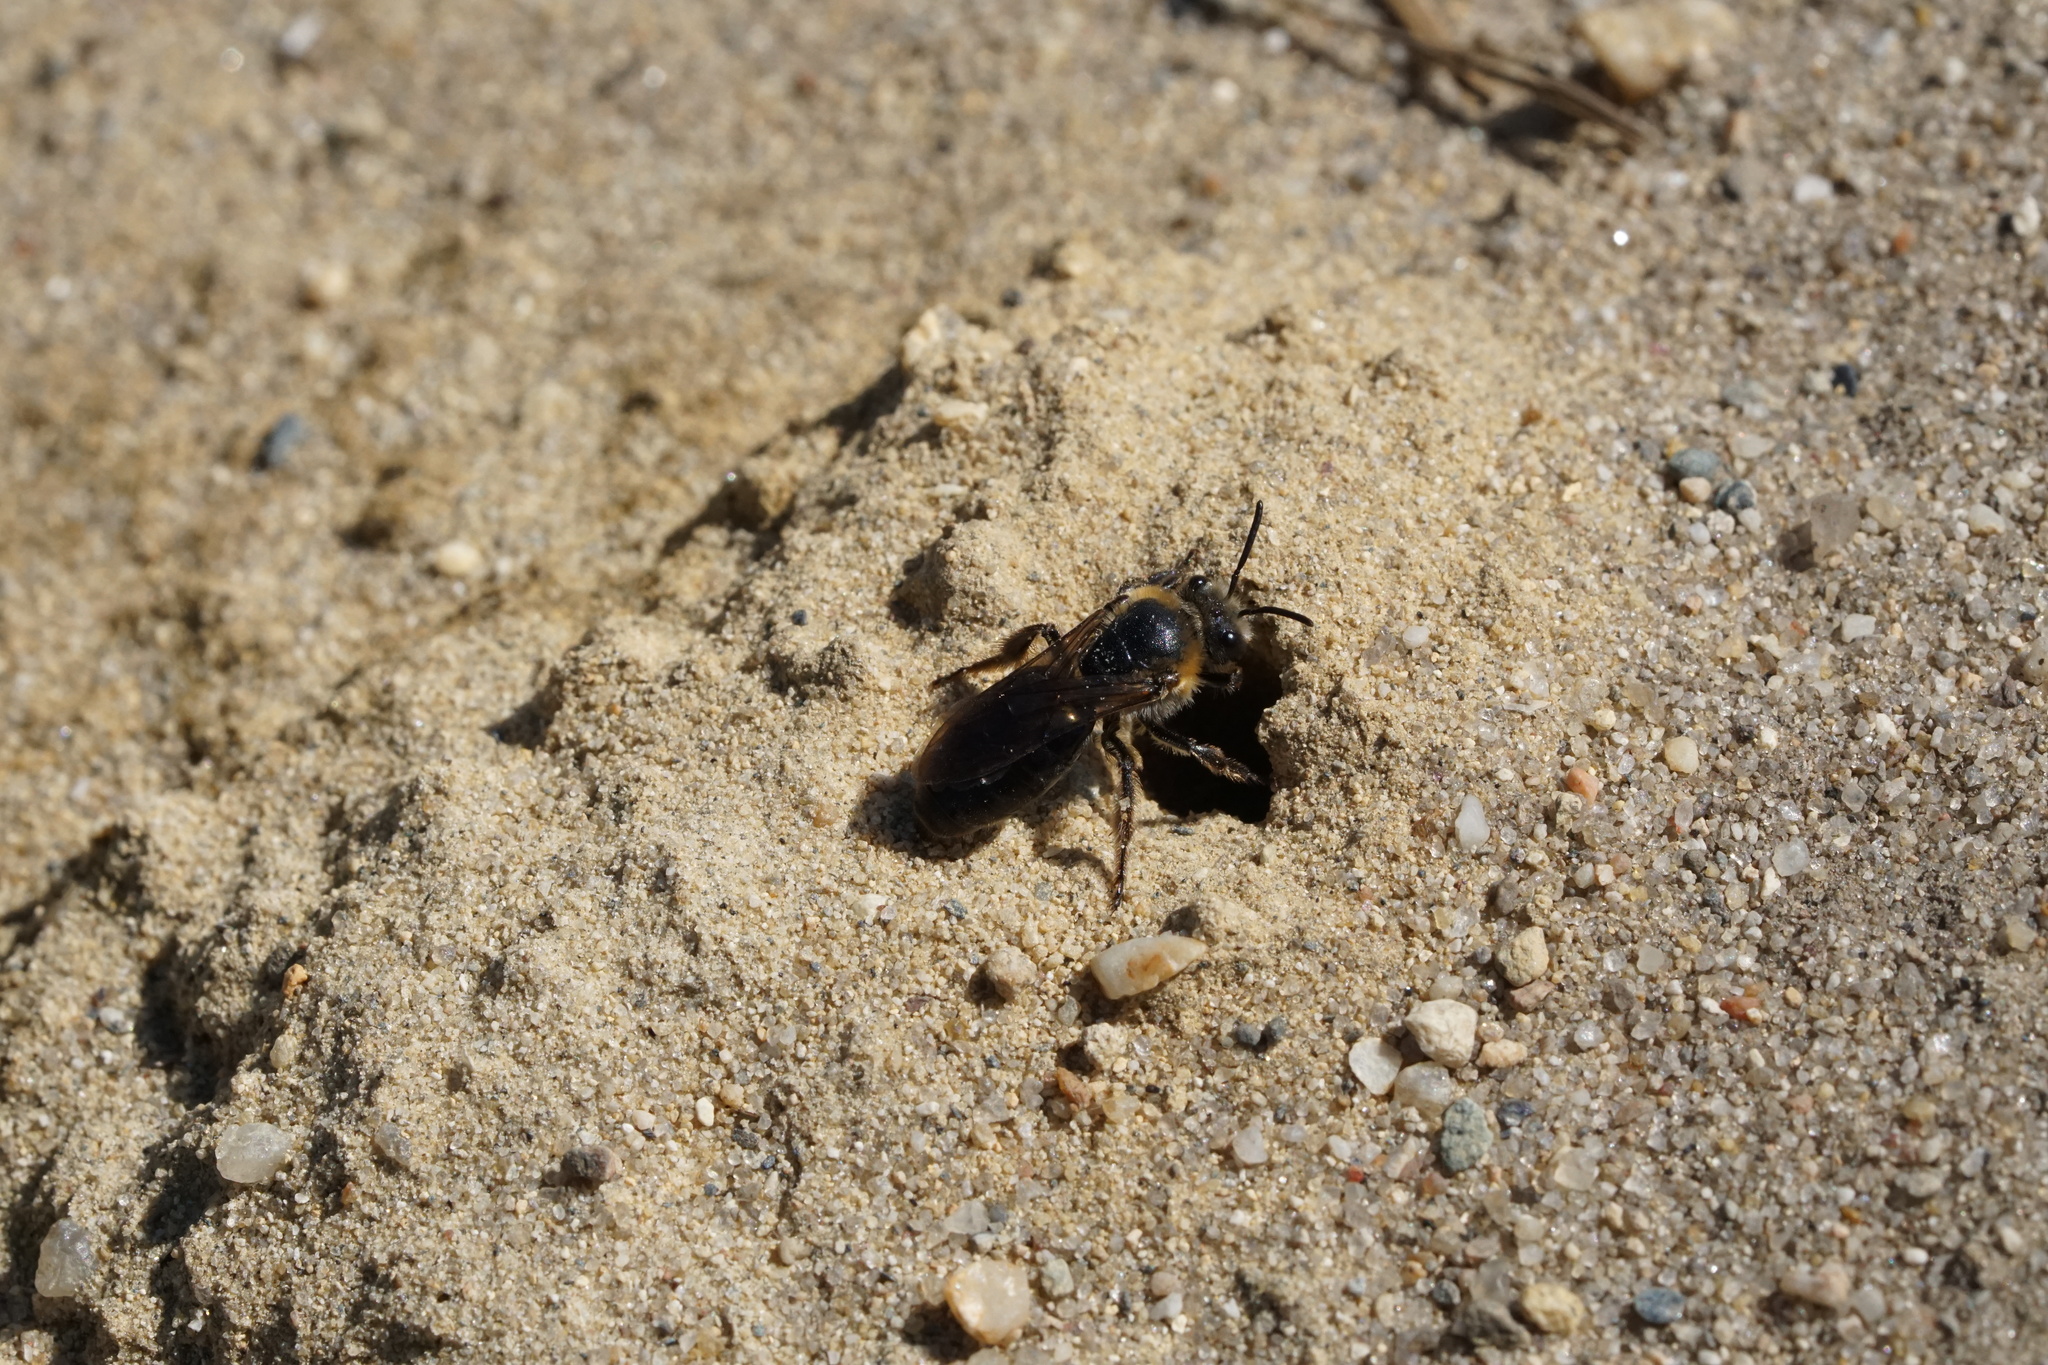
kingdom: Animalia
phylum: Arthropoda
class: Insecta
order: Hymenoptera
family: Colletidae
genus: Colletes
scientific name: Colletes thoracicus
